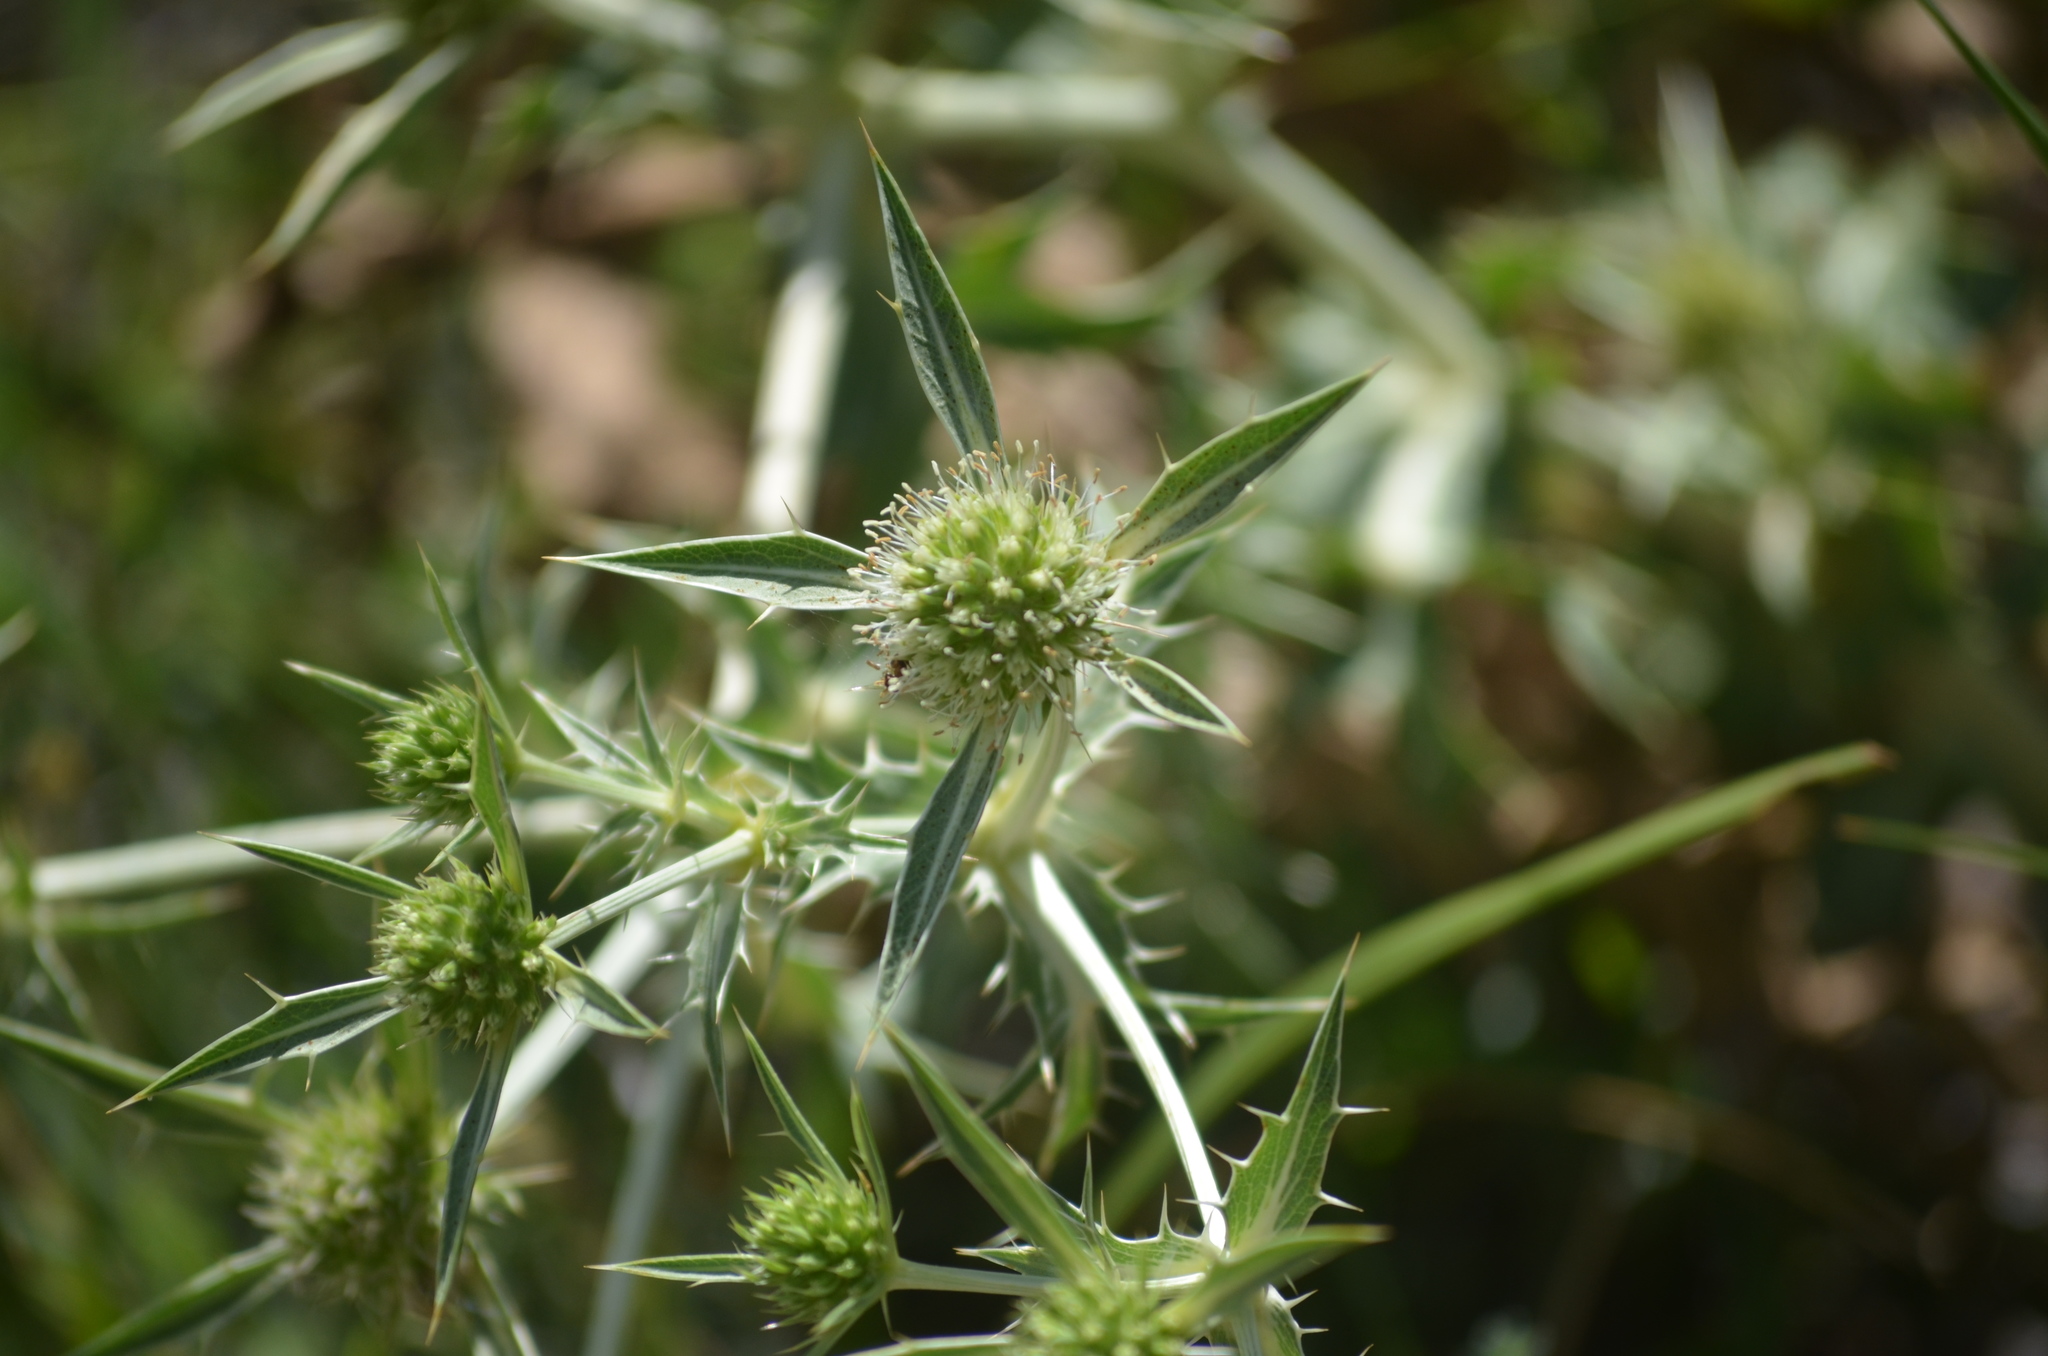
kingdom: Plantae
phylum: Tracheophyta
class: Magnoliopsida
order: Apiales
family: Apiaceae
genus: Eryngium
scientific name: Eryngium campestre
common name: Field eryngo
